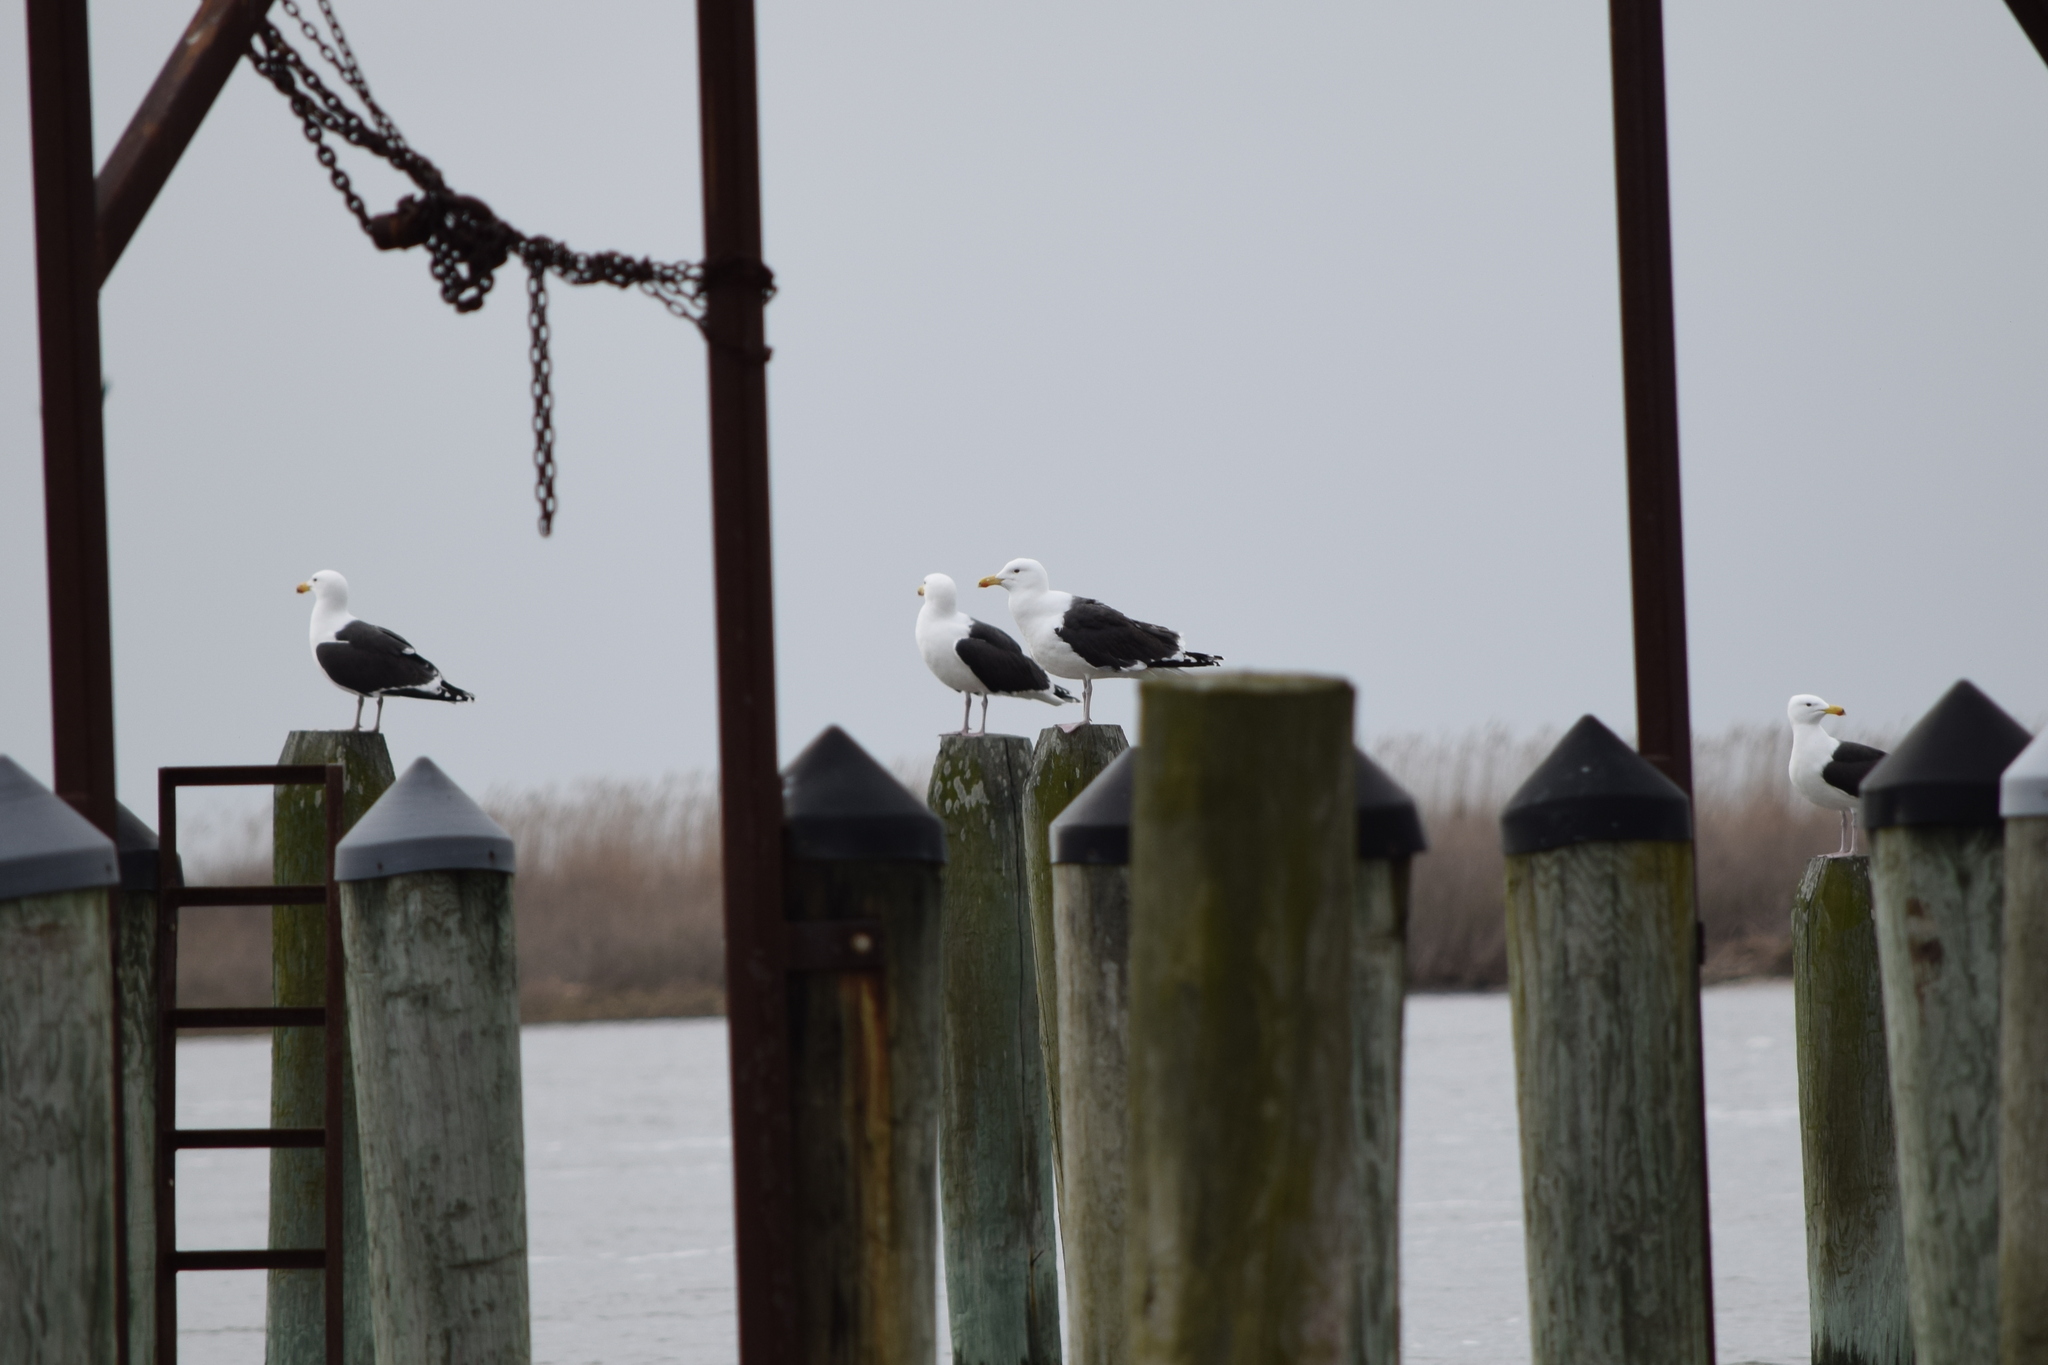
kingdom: Animalia
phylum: Chordata
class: Aves
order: Charadriiformes
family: Laridae
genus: Larus
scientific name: Larus marinus
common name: Great black-backed gull
